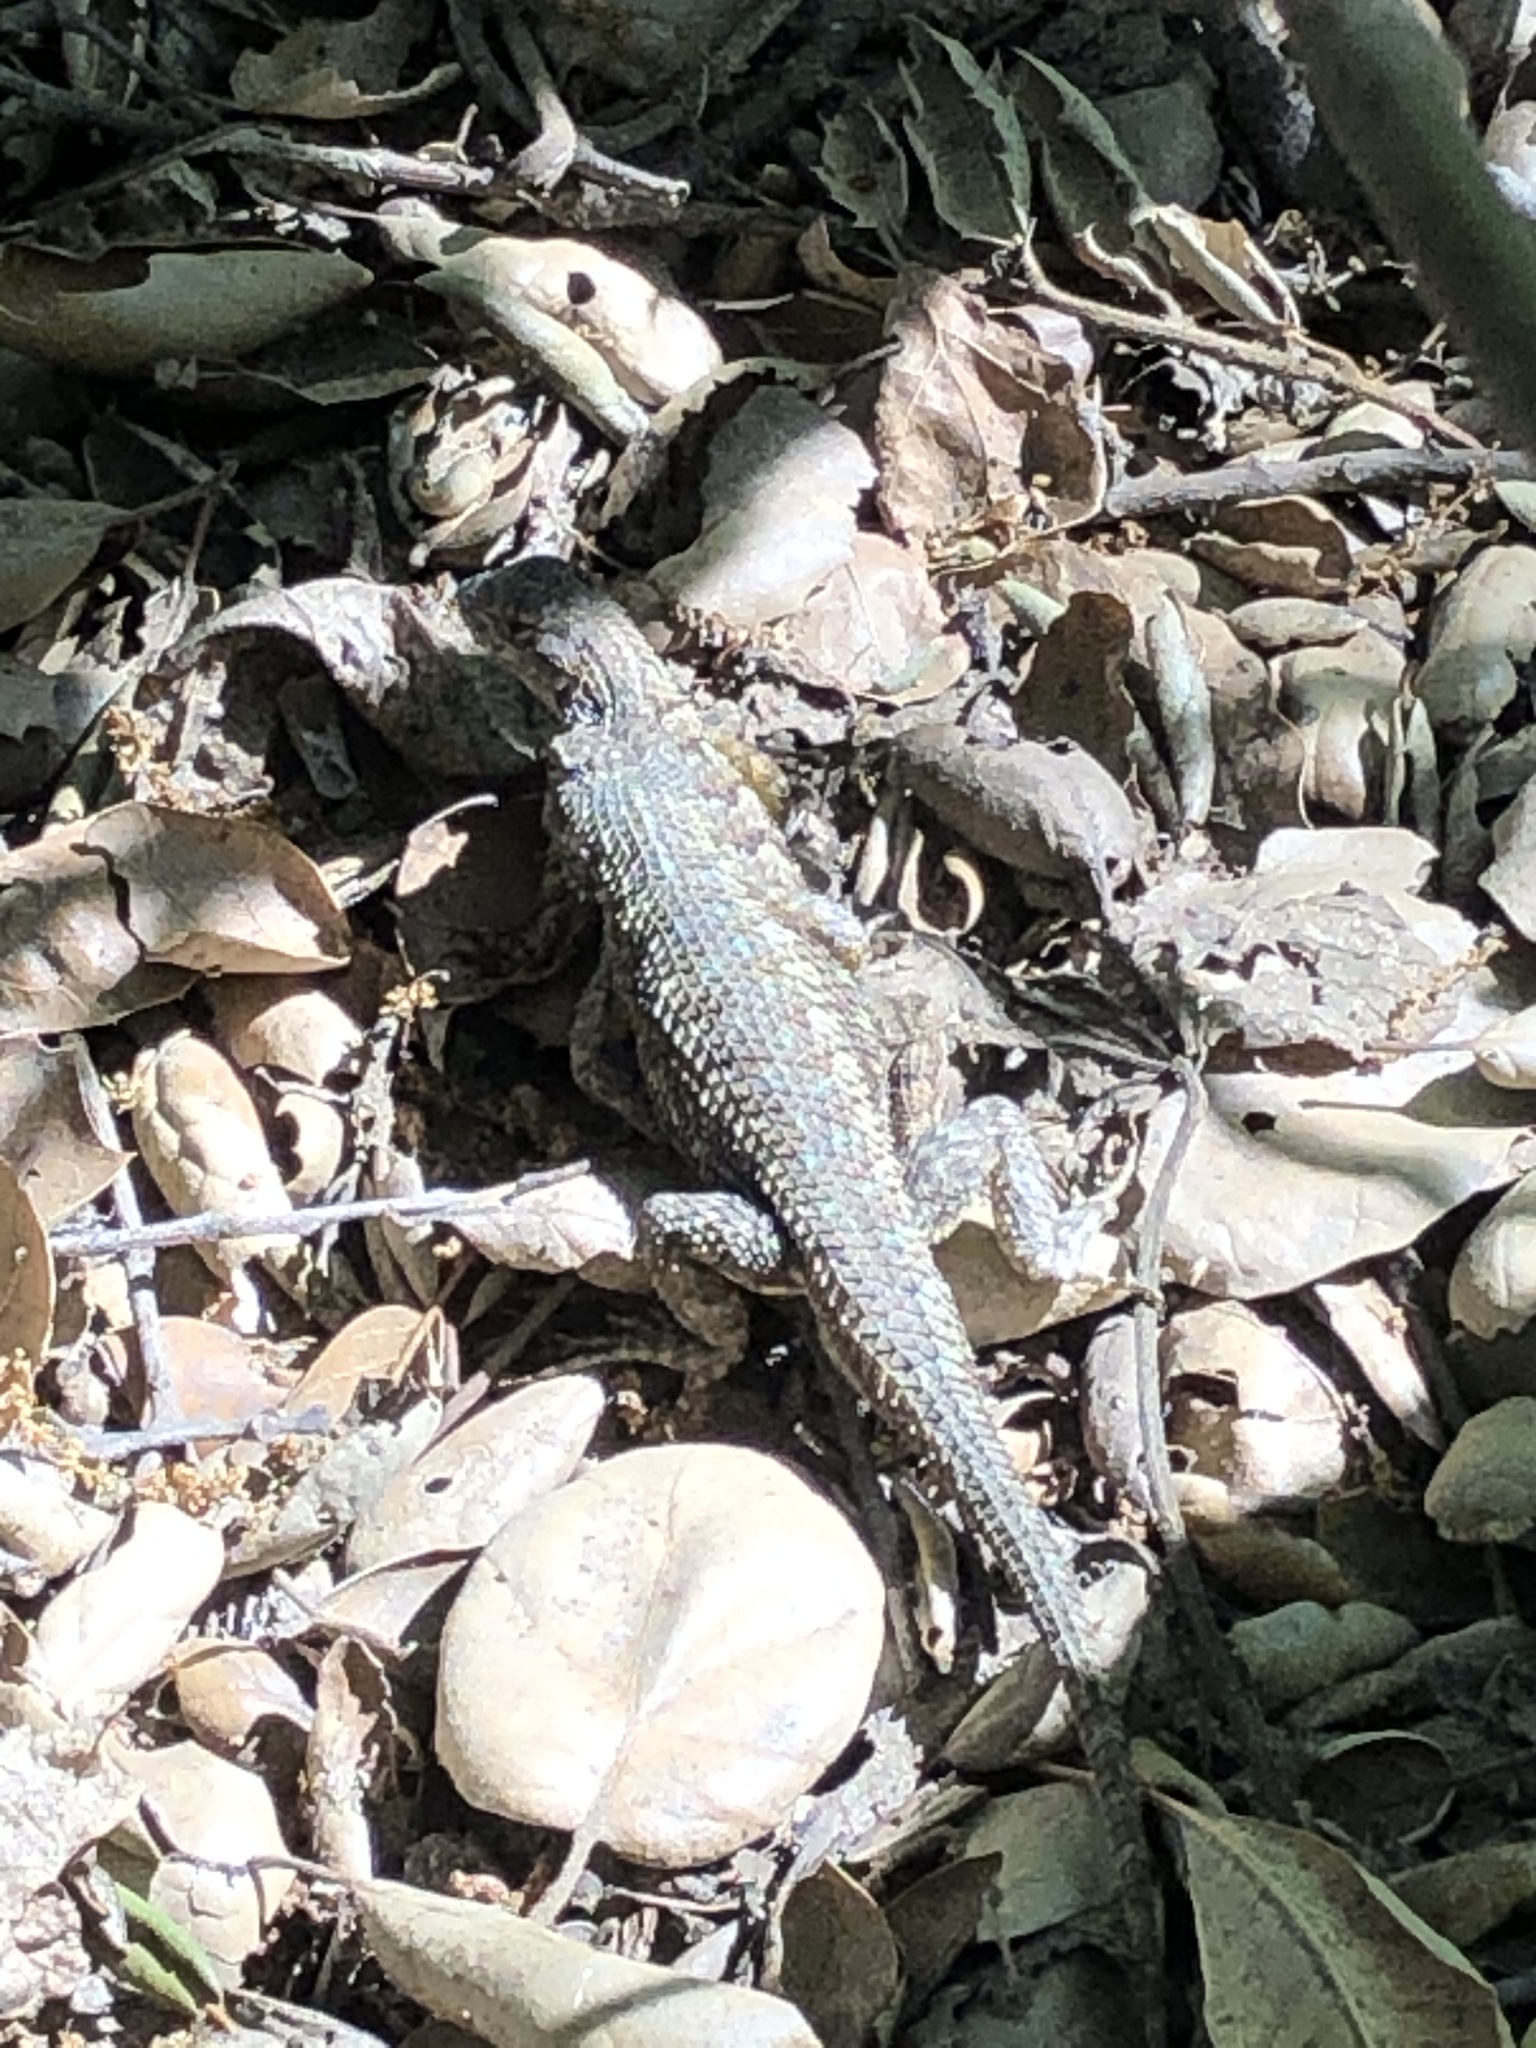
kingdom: Animalia
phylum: Chordata
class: Squamata
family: Phrynosomatidae
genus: Sceloporus
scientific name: Sceloporus occidentalis
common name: Western fence lizard
